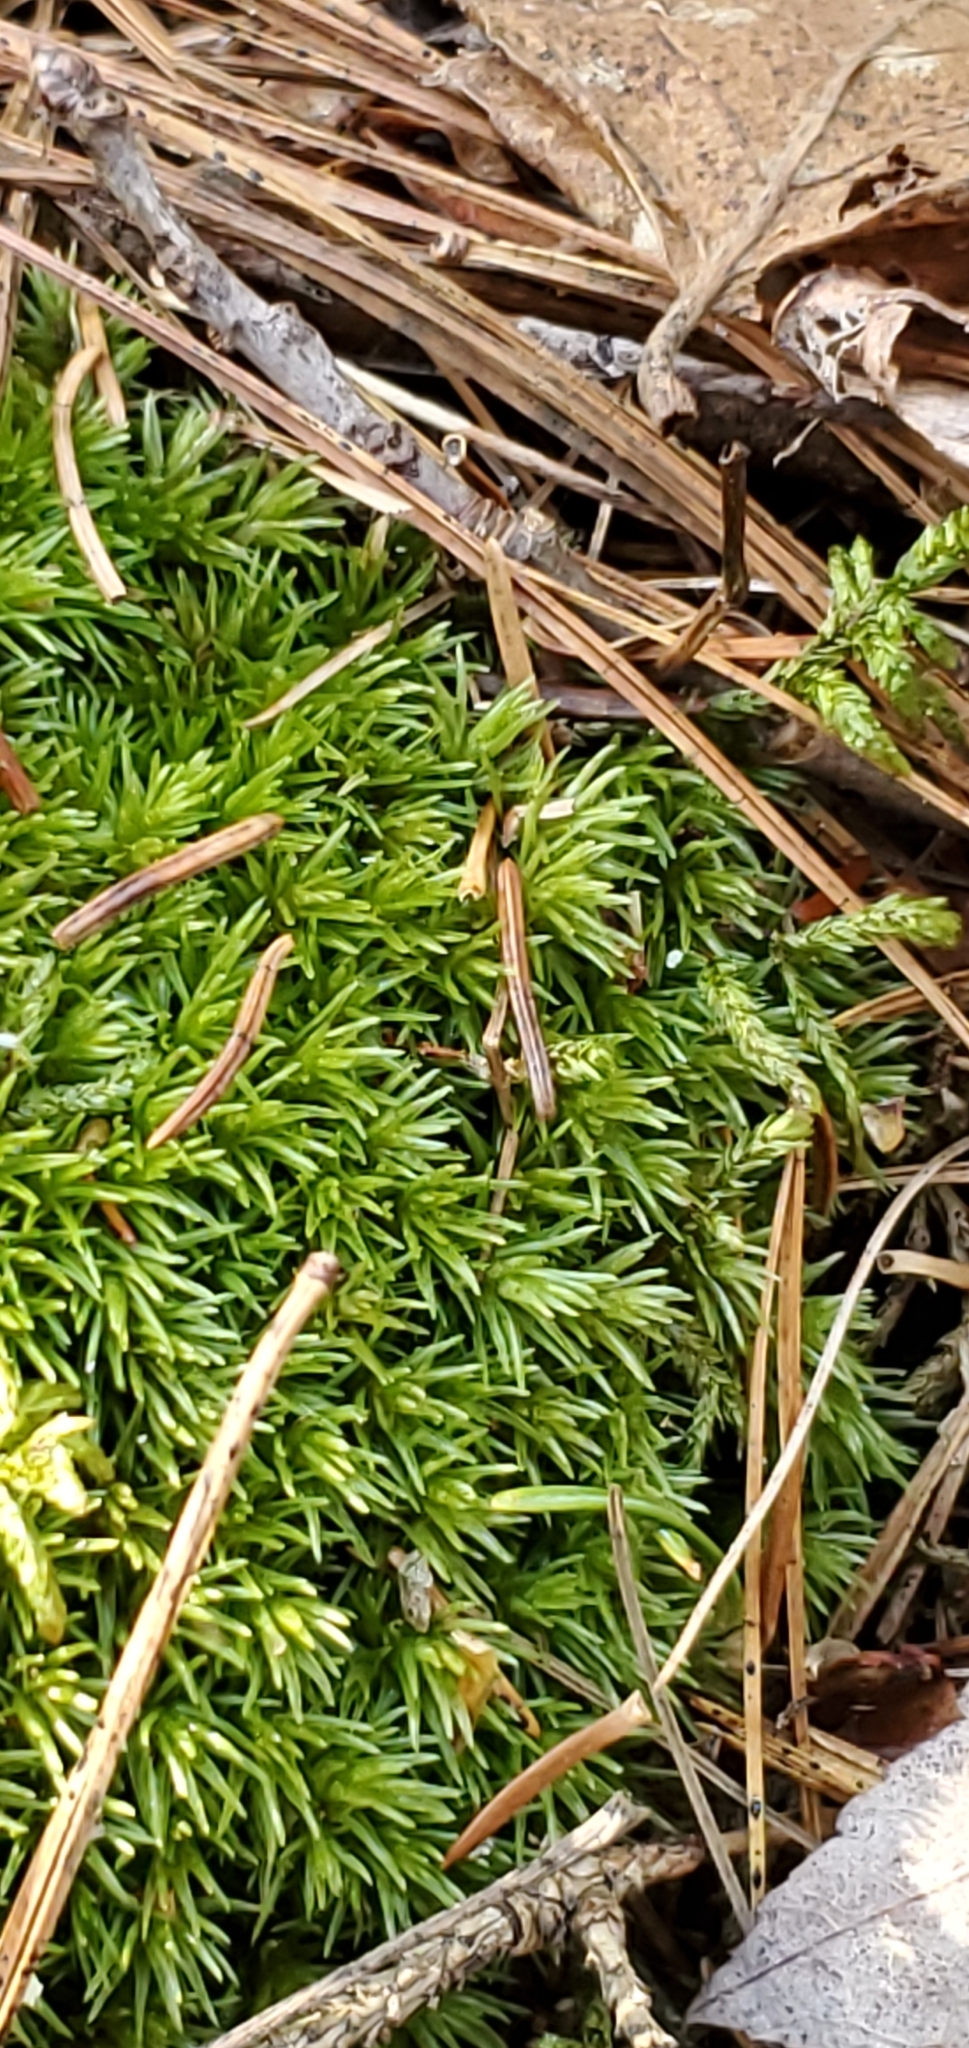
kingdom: Plantae
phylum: Bryophyta
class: Bryopsida
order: Dicranales
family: Leucobryaceae
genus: Leucobryum
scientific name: Leucobryum glaucum
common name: Large white-moss
